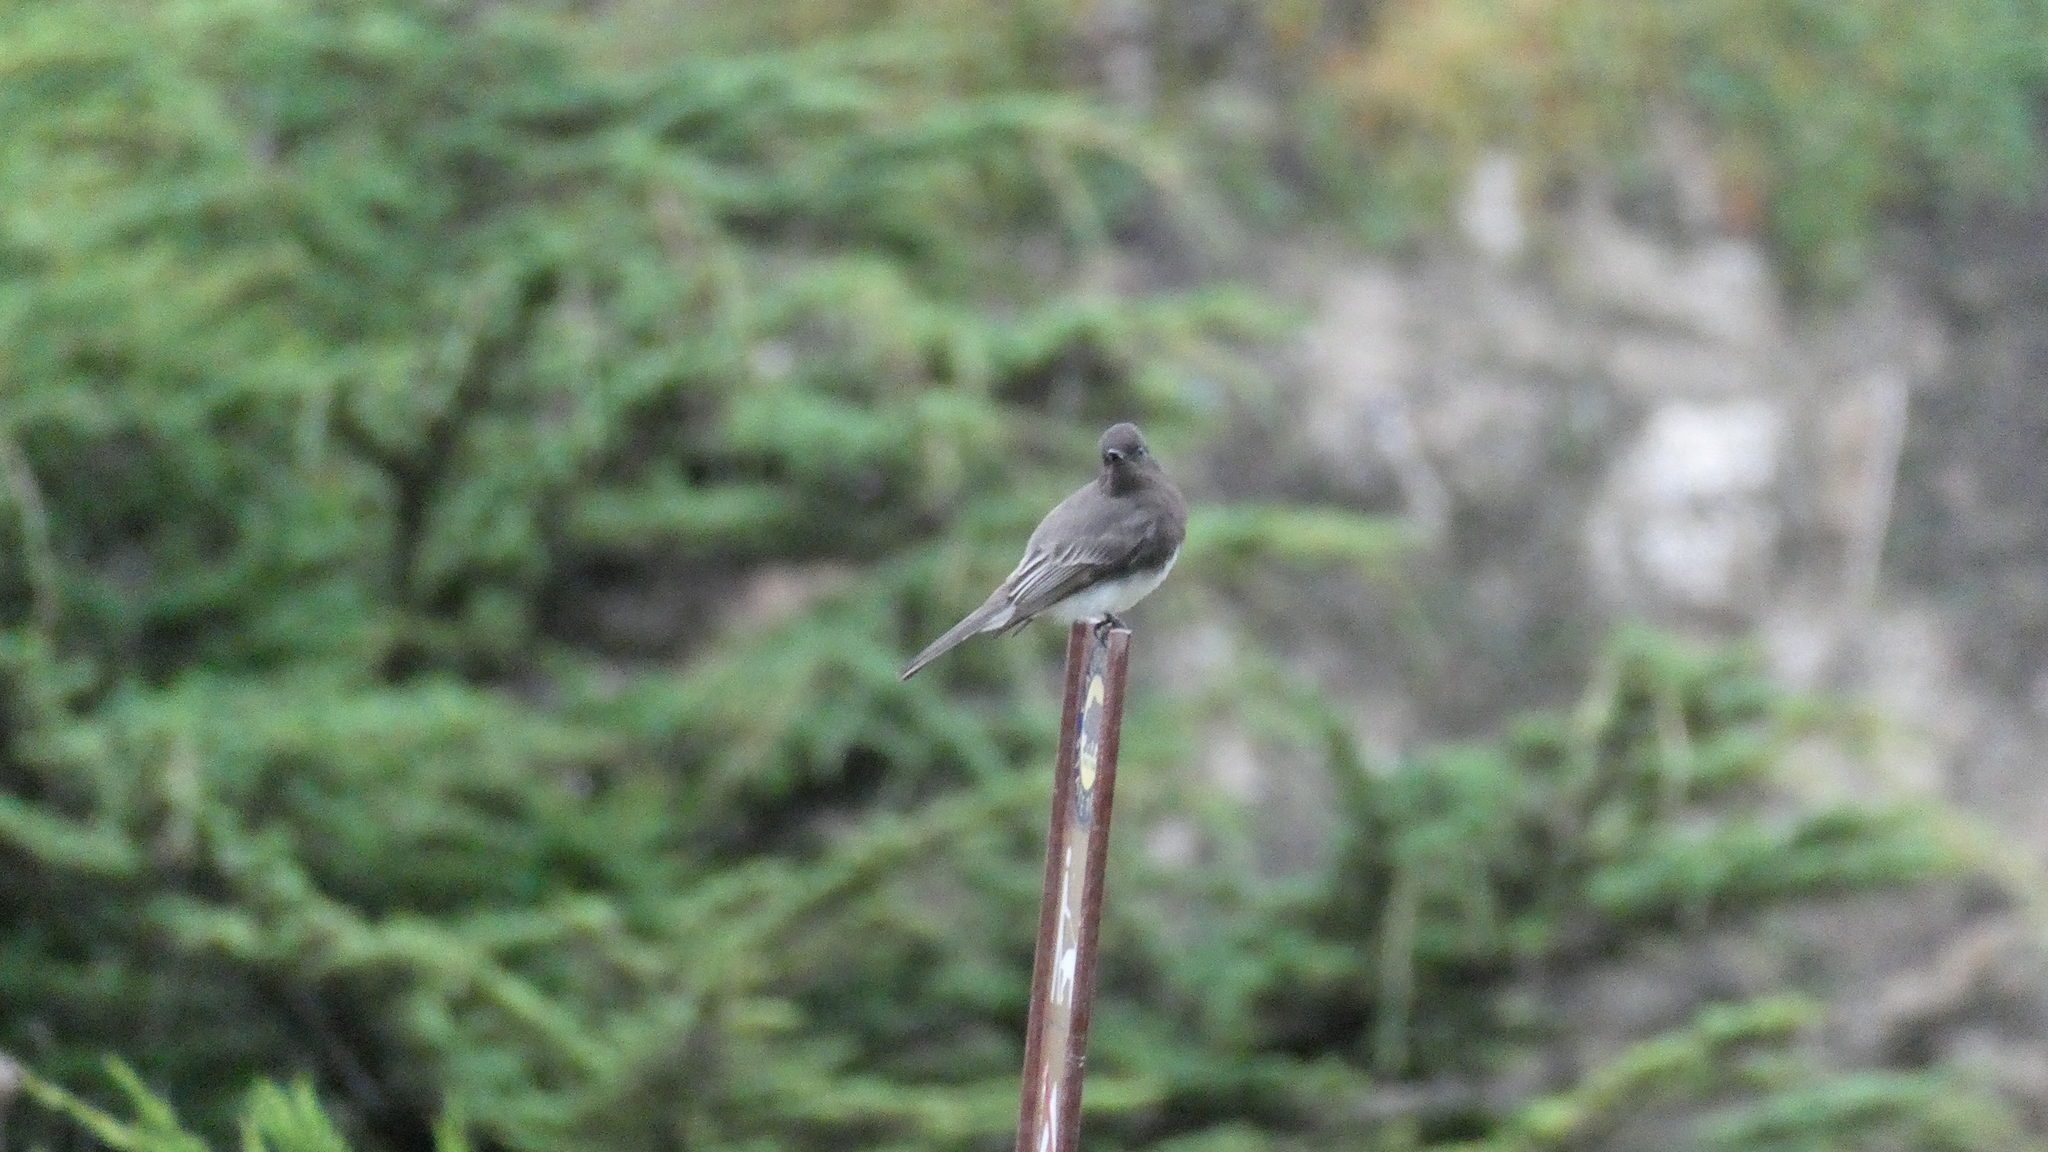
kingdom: Animalia
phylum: Chordata
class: Aves
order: Passeriformes
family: Tyrannidae
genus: Sayornis
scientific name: Sayornis nigricans
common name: Black phoebe
